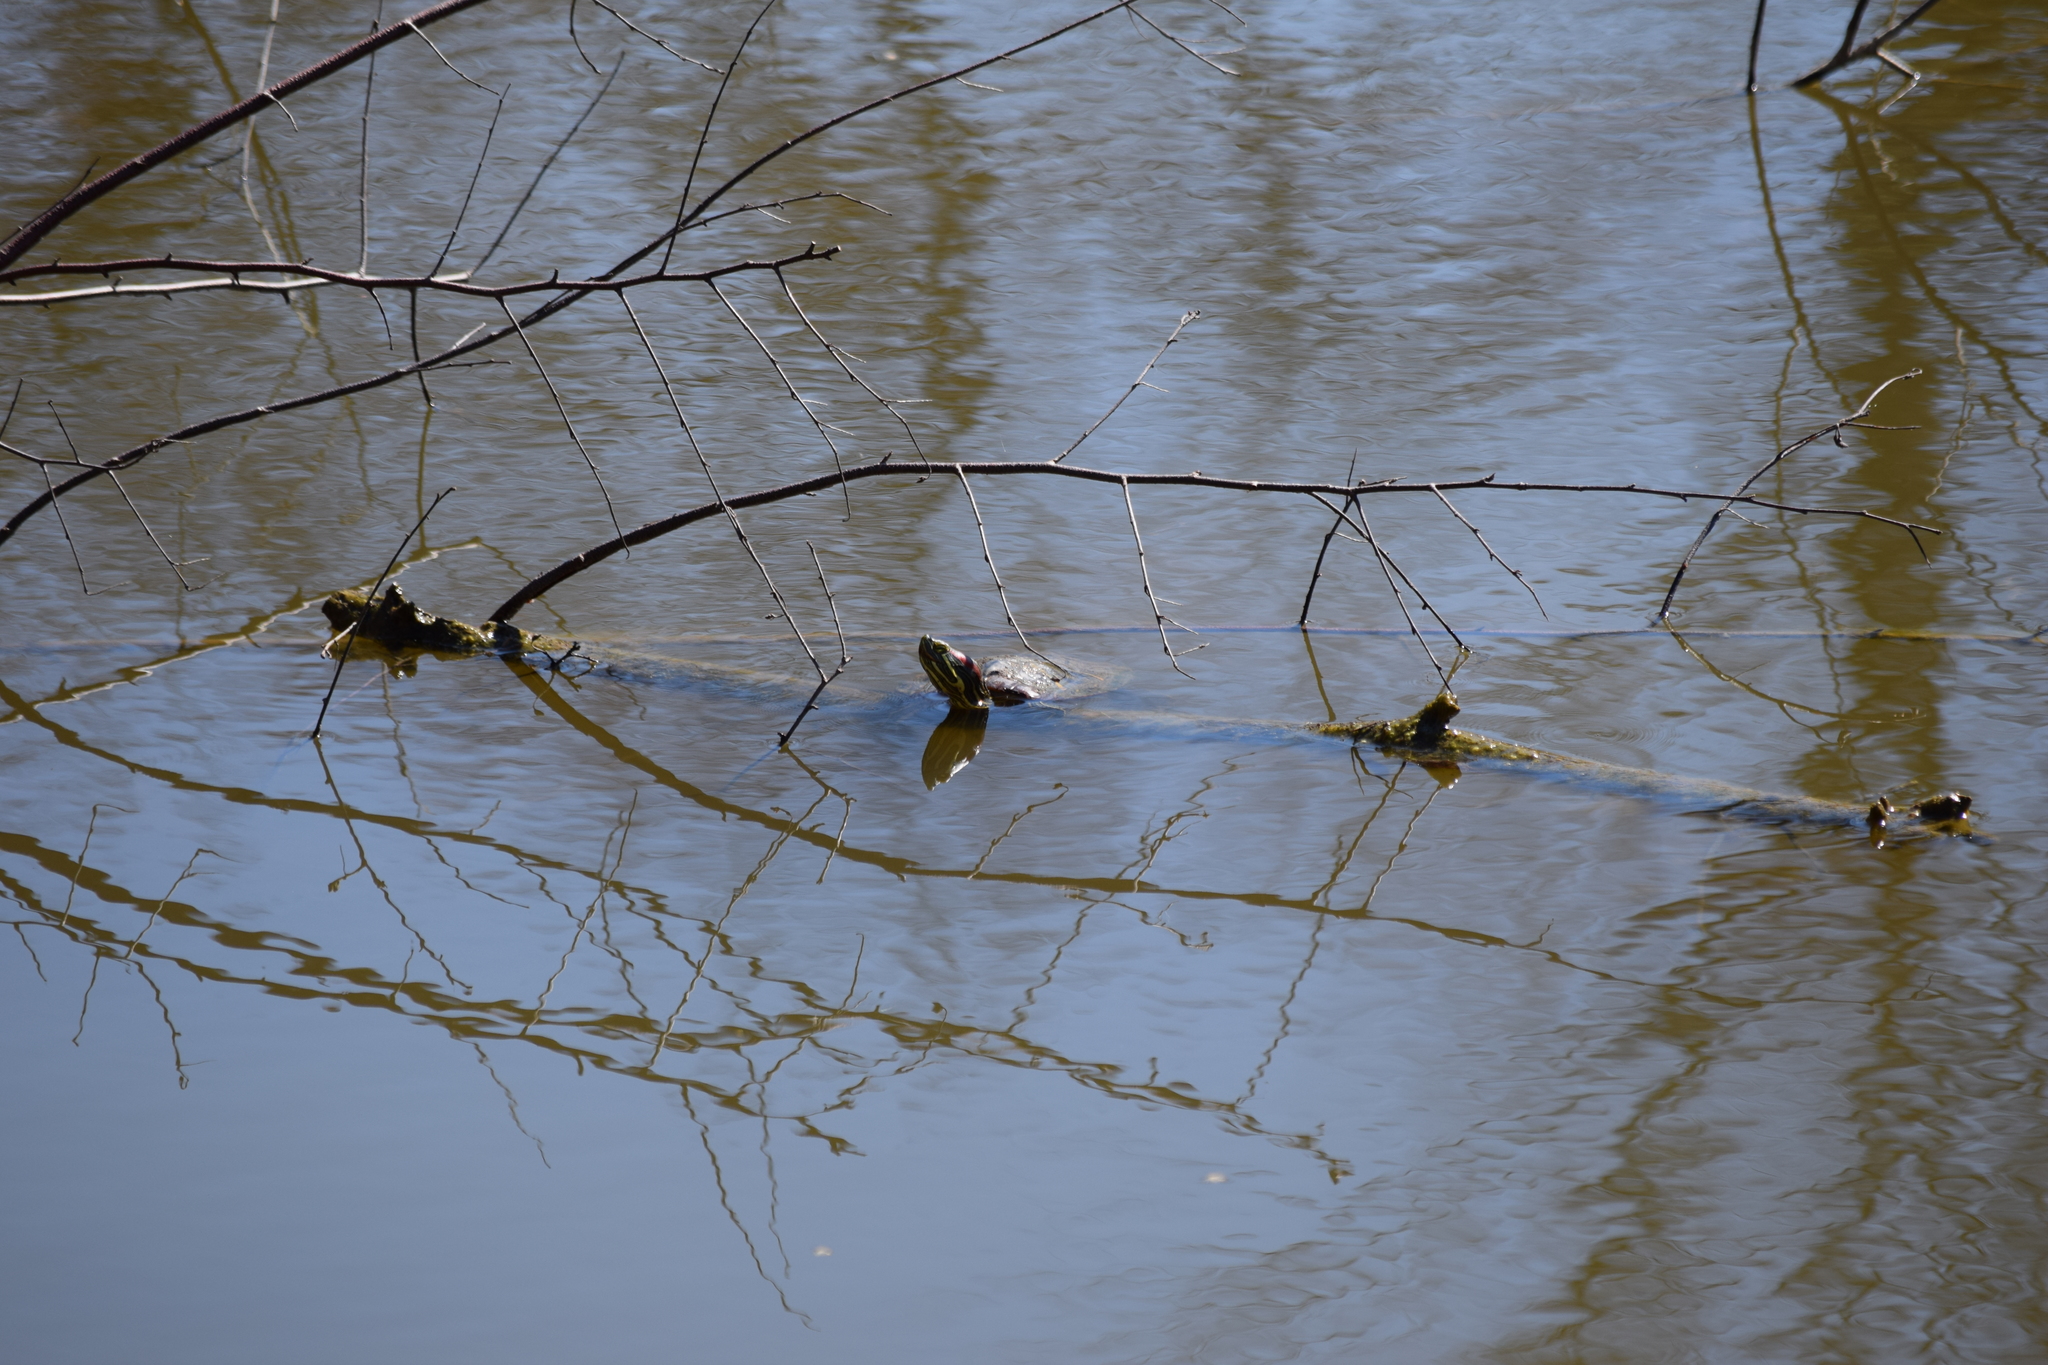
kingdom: Animalia
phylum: Chordata
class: Testudines
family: Emydidae
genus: Trachemys
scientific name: Trachemys scripta
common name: Slider
